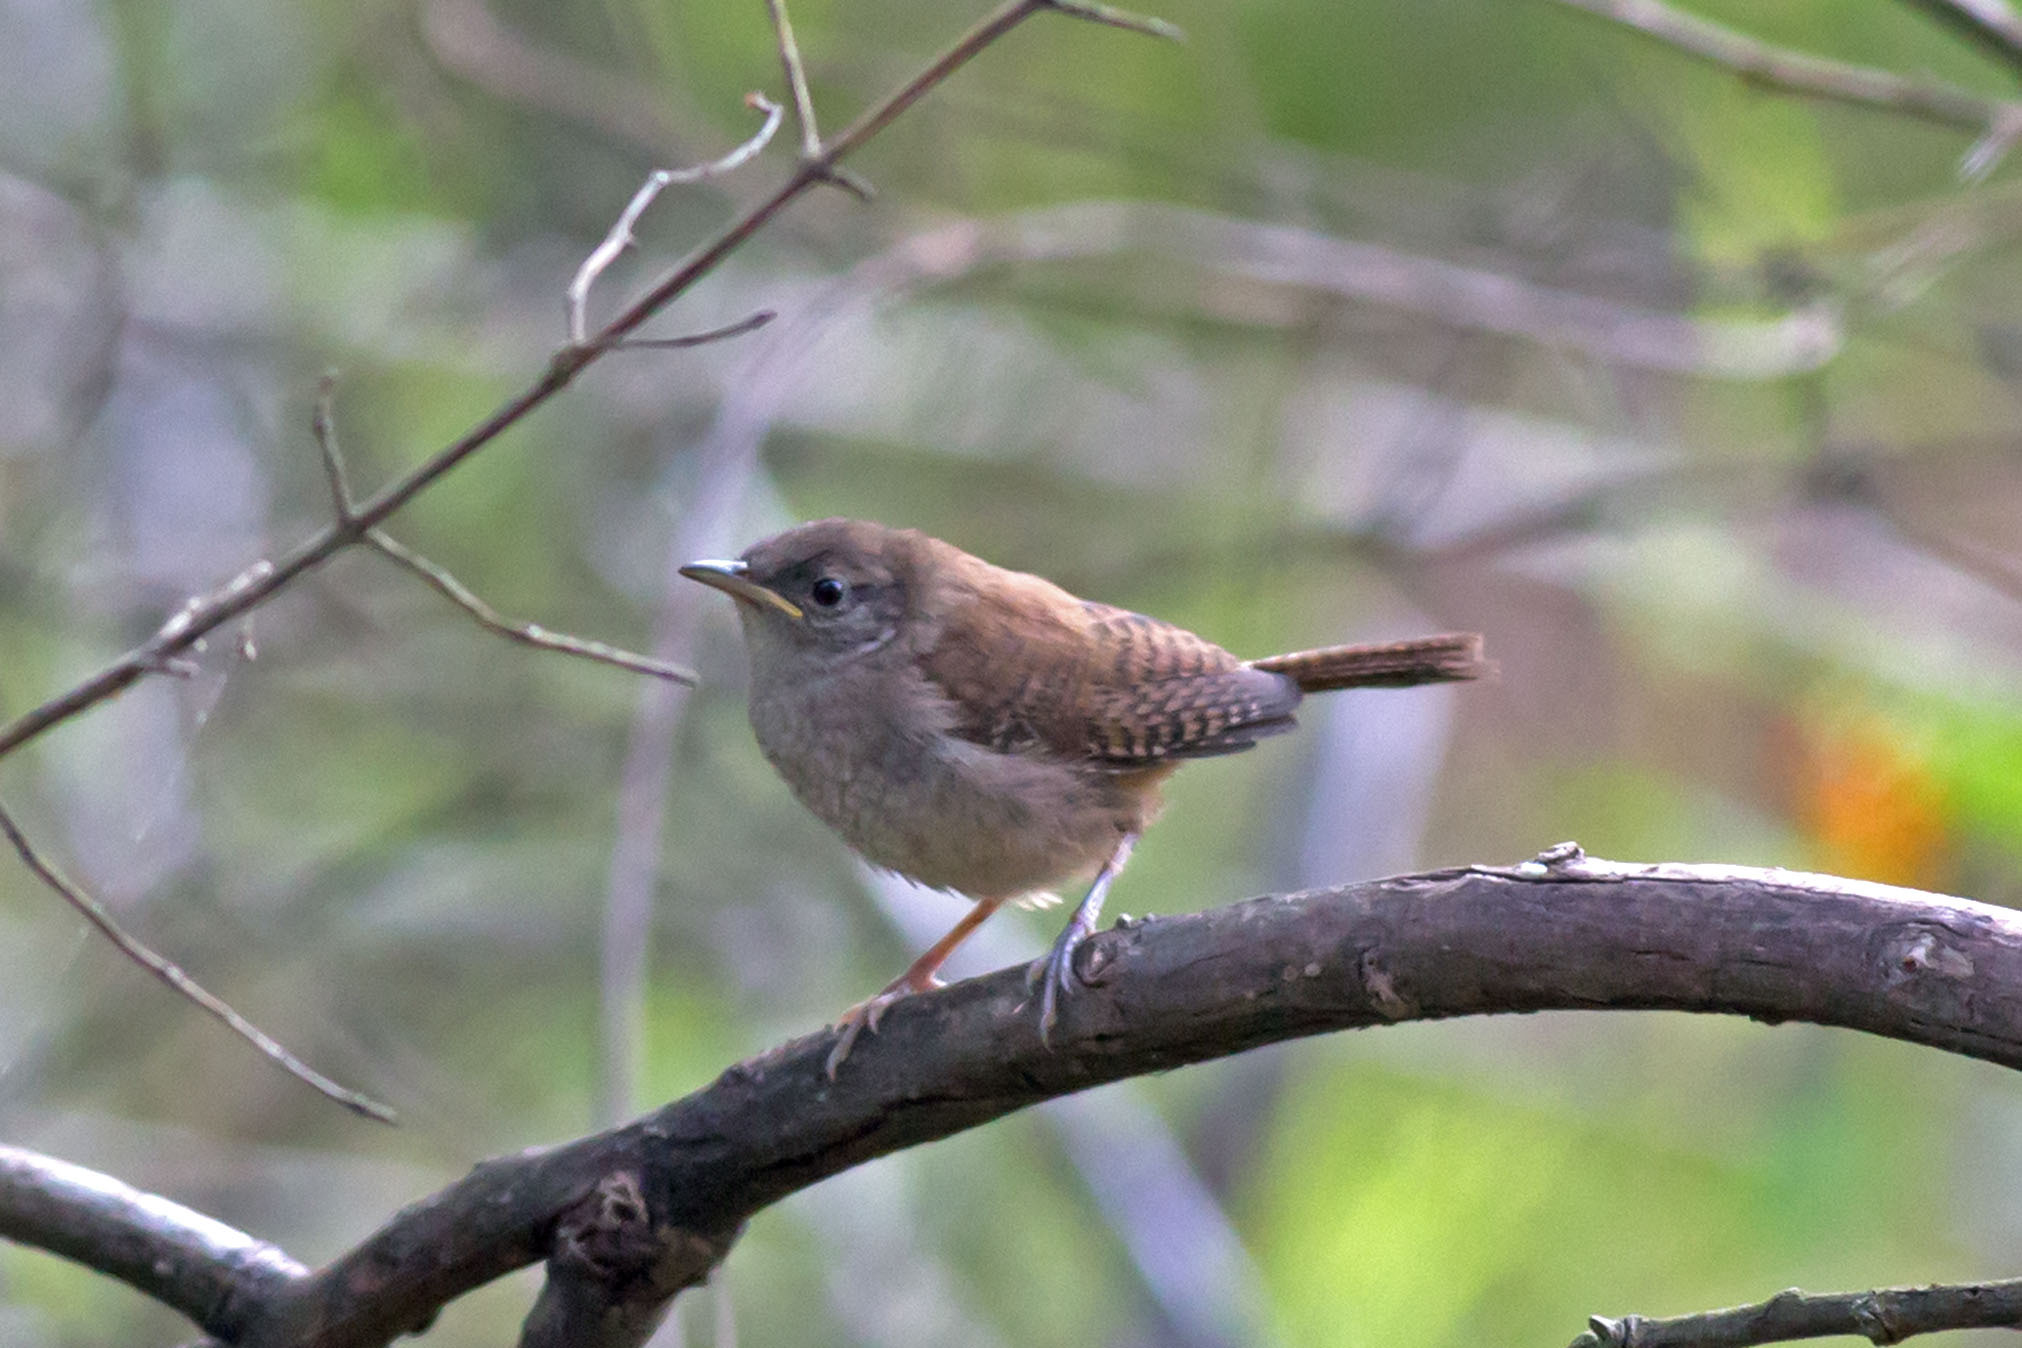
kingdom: Animalia
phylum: Chordata
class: Aves
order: Passeriformes
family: Troglodytidae
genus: Troglodytes
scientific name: Troglodytes aedon
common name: House wren
